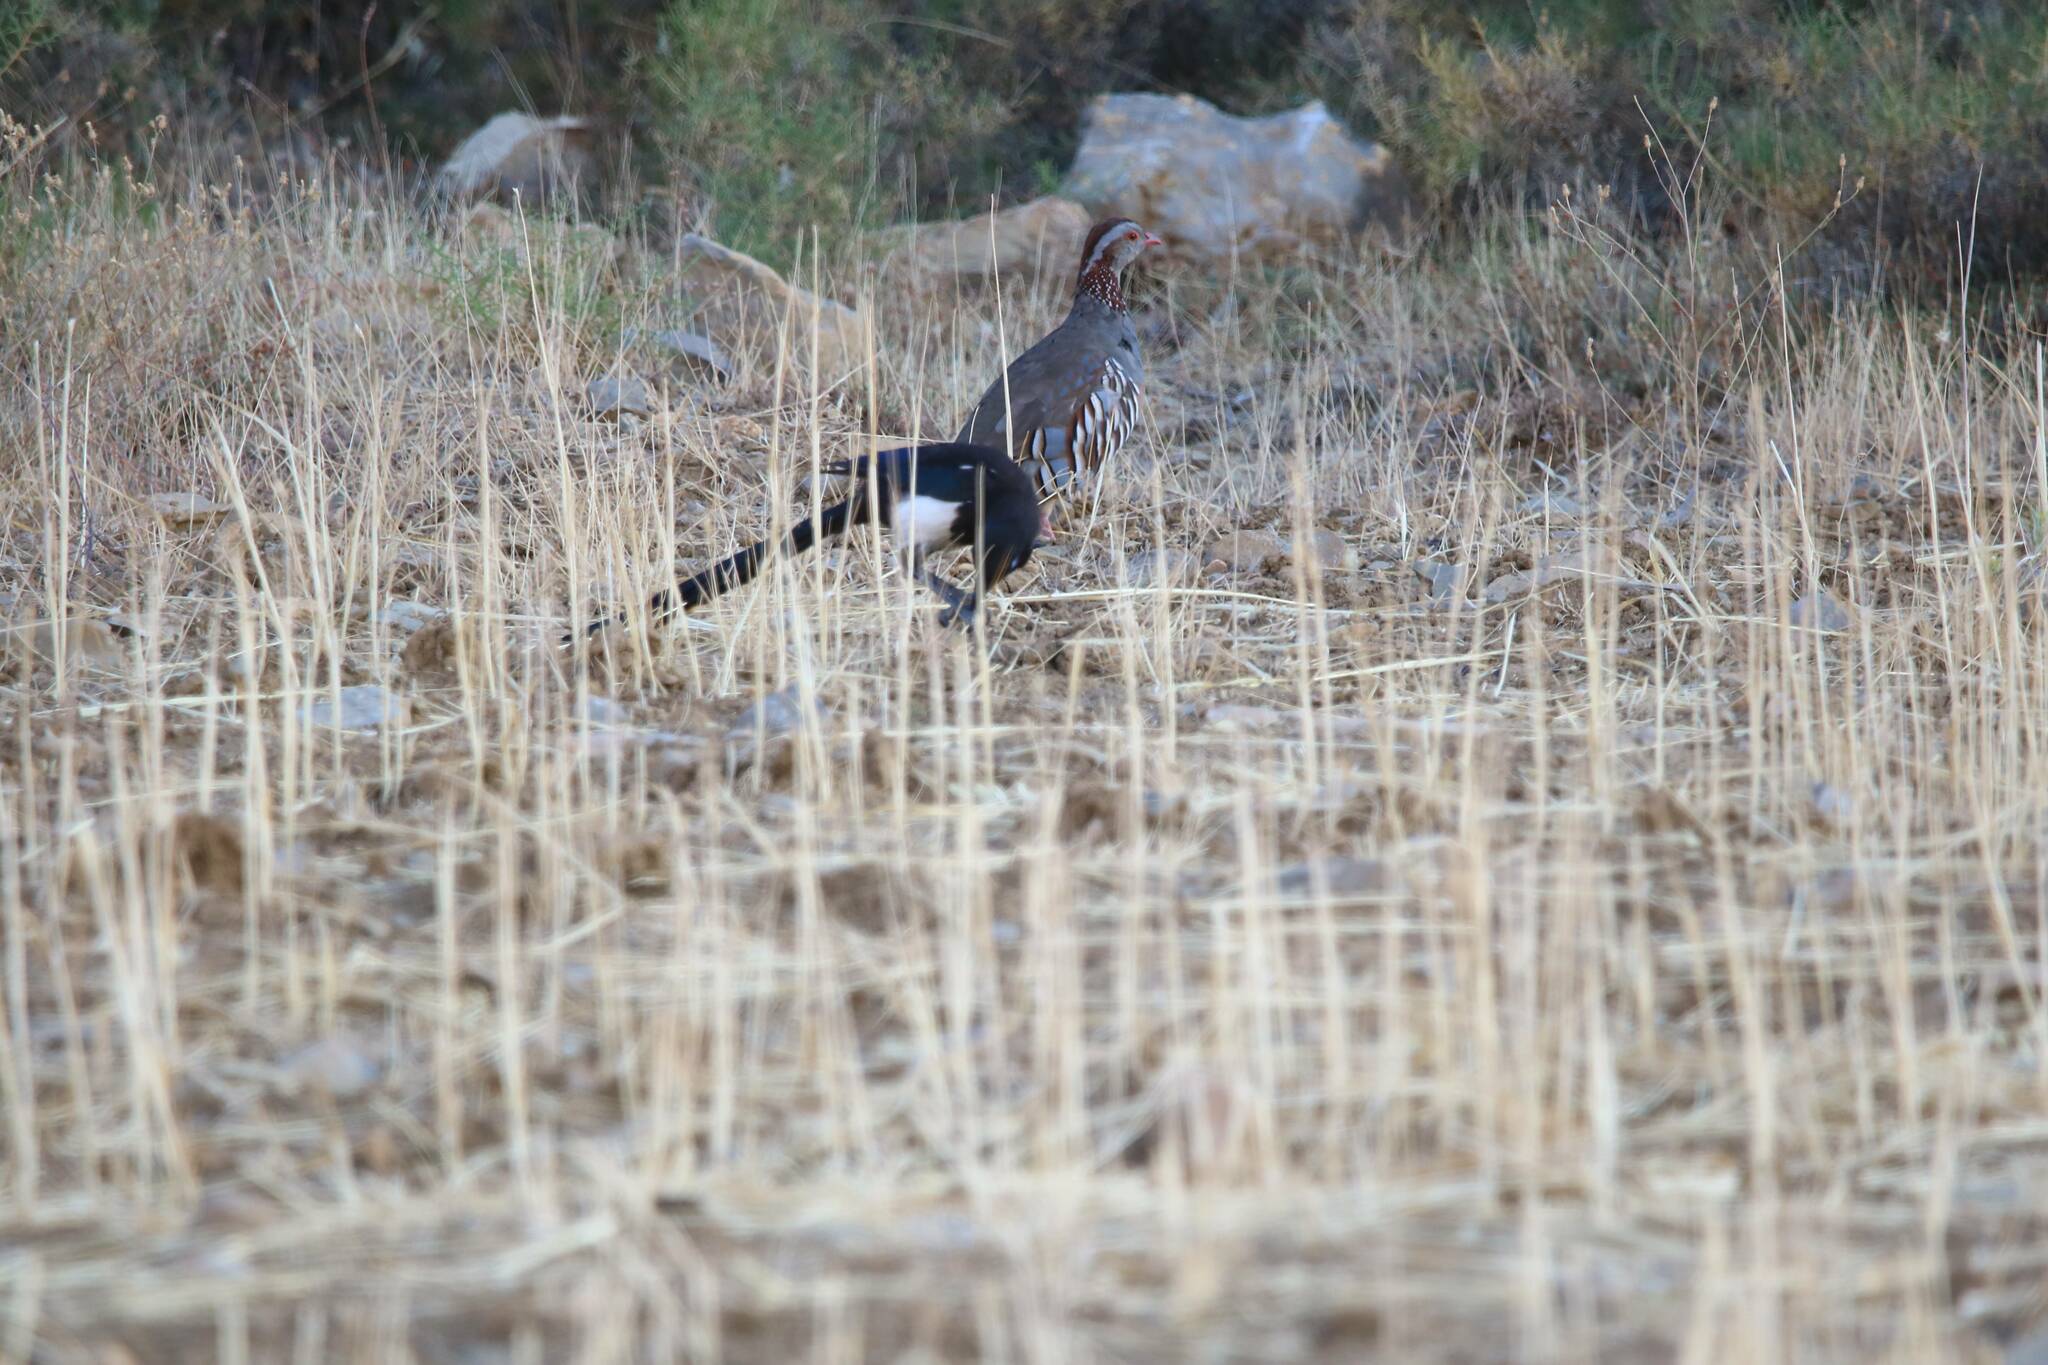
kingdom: Animalia
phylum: Chordata
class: Aves
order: Passeriformes
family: Corvidae
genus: Pica
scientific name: Pica mauritanica
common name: Maghreb magpie
